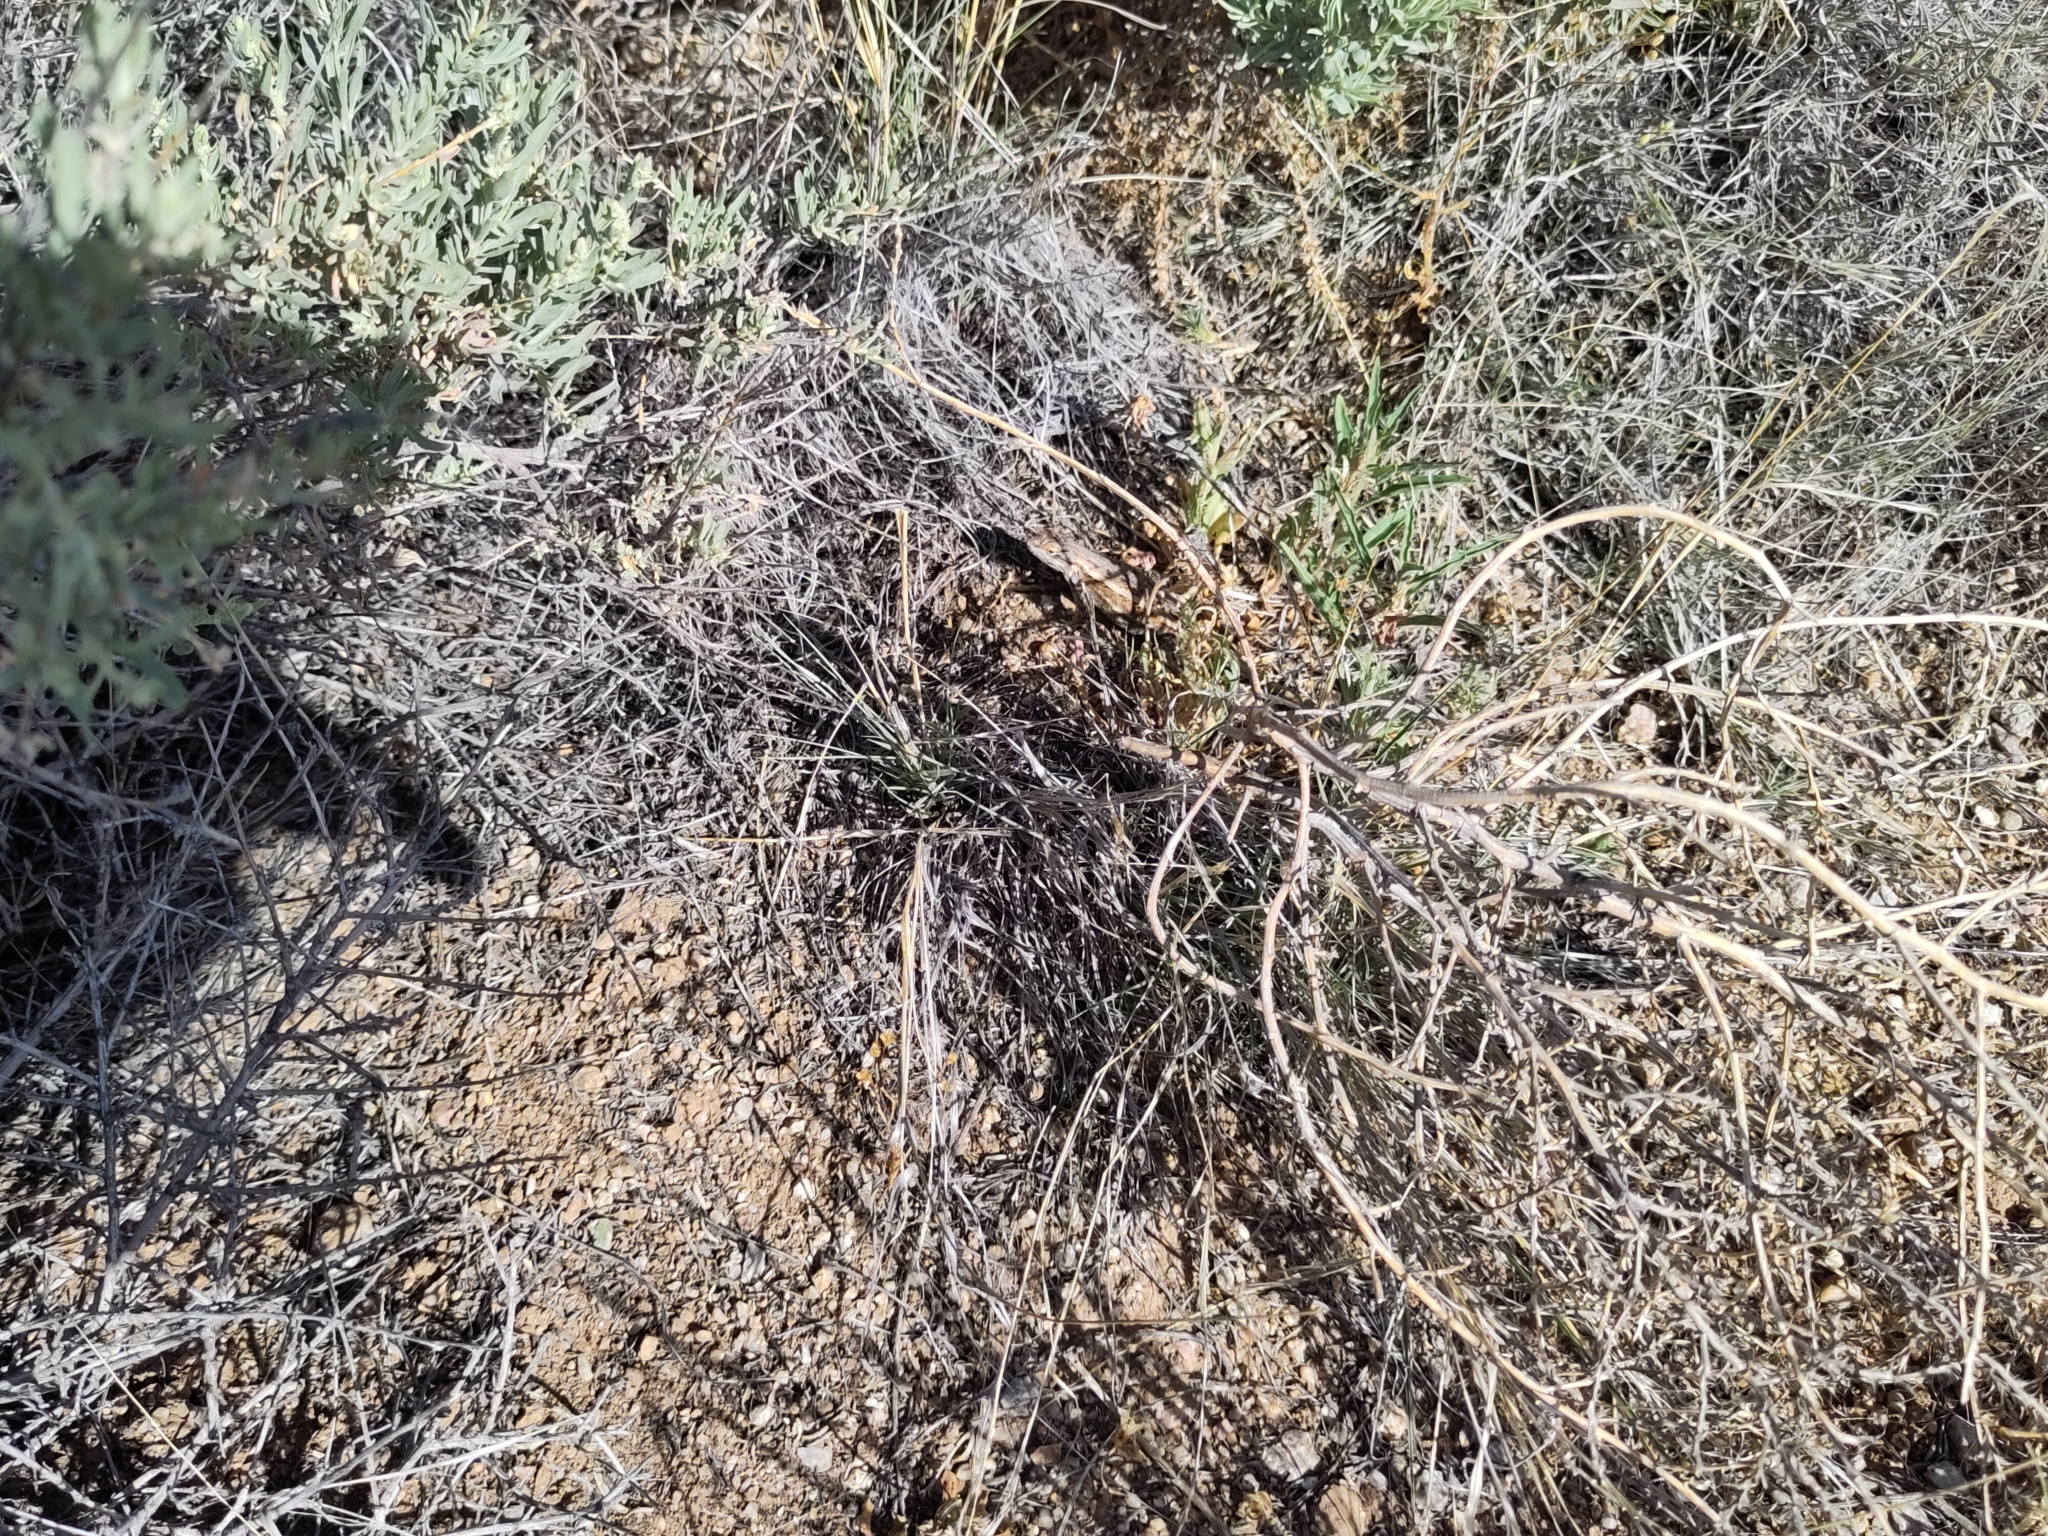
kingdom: Animalia
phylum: Chordata
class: Squamata
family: Phrynosomatidae
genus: Sceloporus
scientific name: Sceloporus cowlesi
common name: White sands prairie lizard
